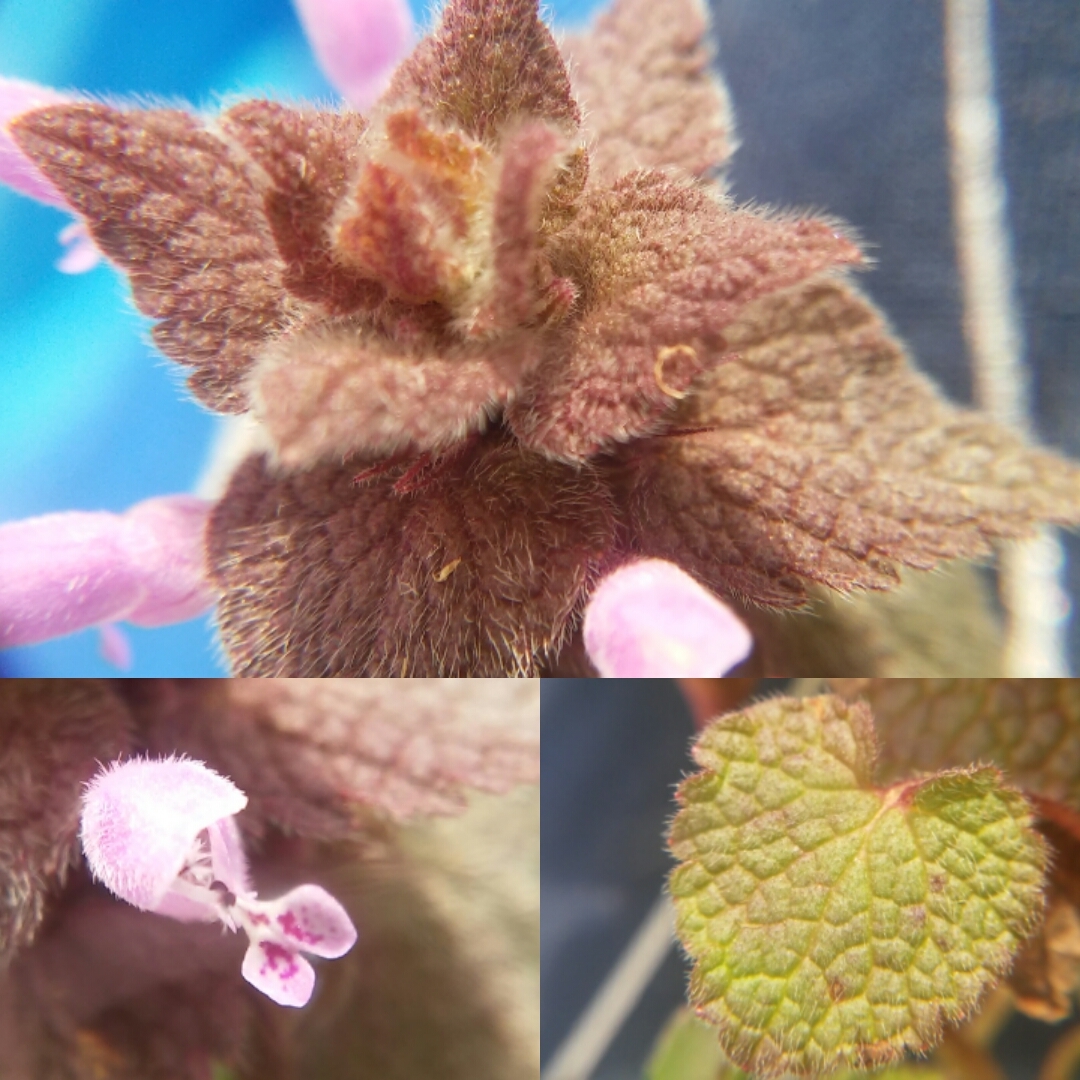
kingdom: Plantae
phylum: Tracheophyta
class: Magnoliopsida
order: Lamiales
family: Lamiaceae
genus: Lamium
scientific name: Lamium purpureum
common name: Red dead-nettle
